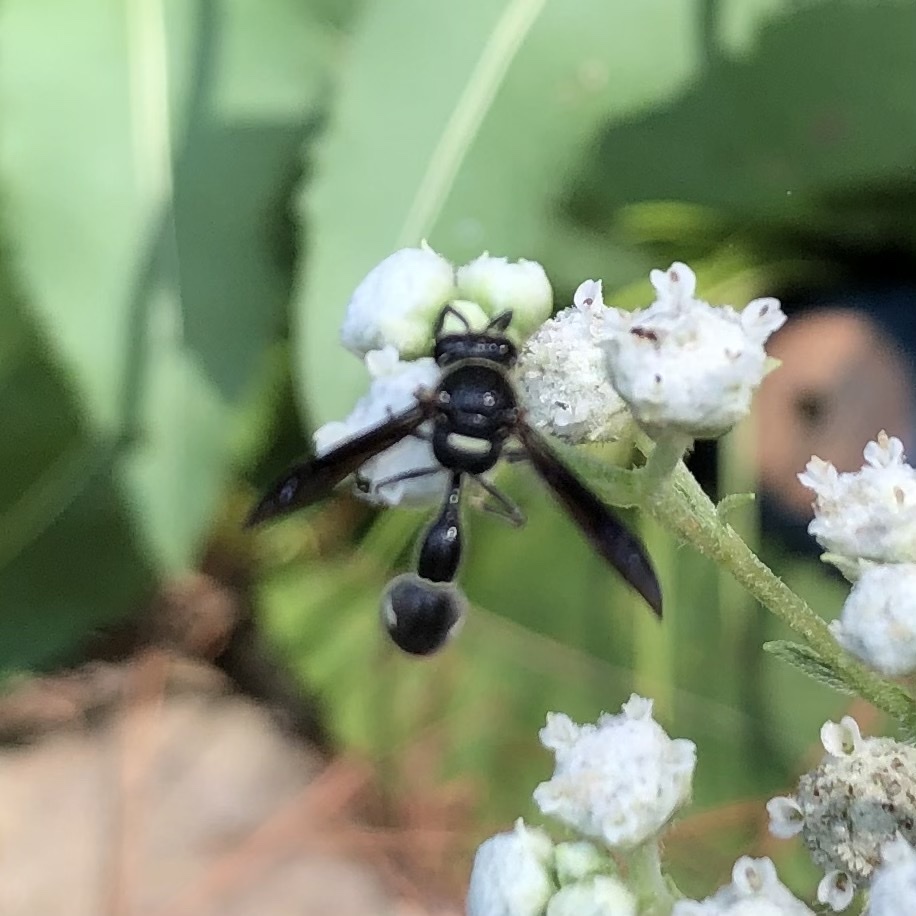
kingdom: Animalia
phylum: Arthropoda
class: Insecta
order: Hymenoptera
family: Vespidae
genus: Eumenes
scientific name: Eumenes fraternus
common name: Fraternal potter wasp
